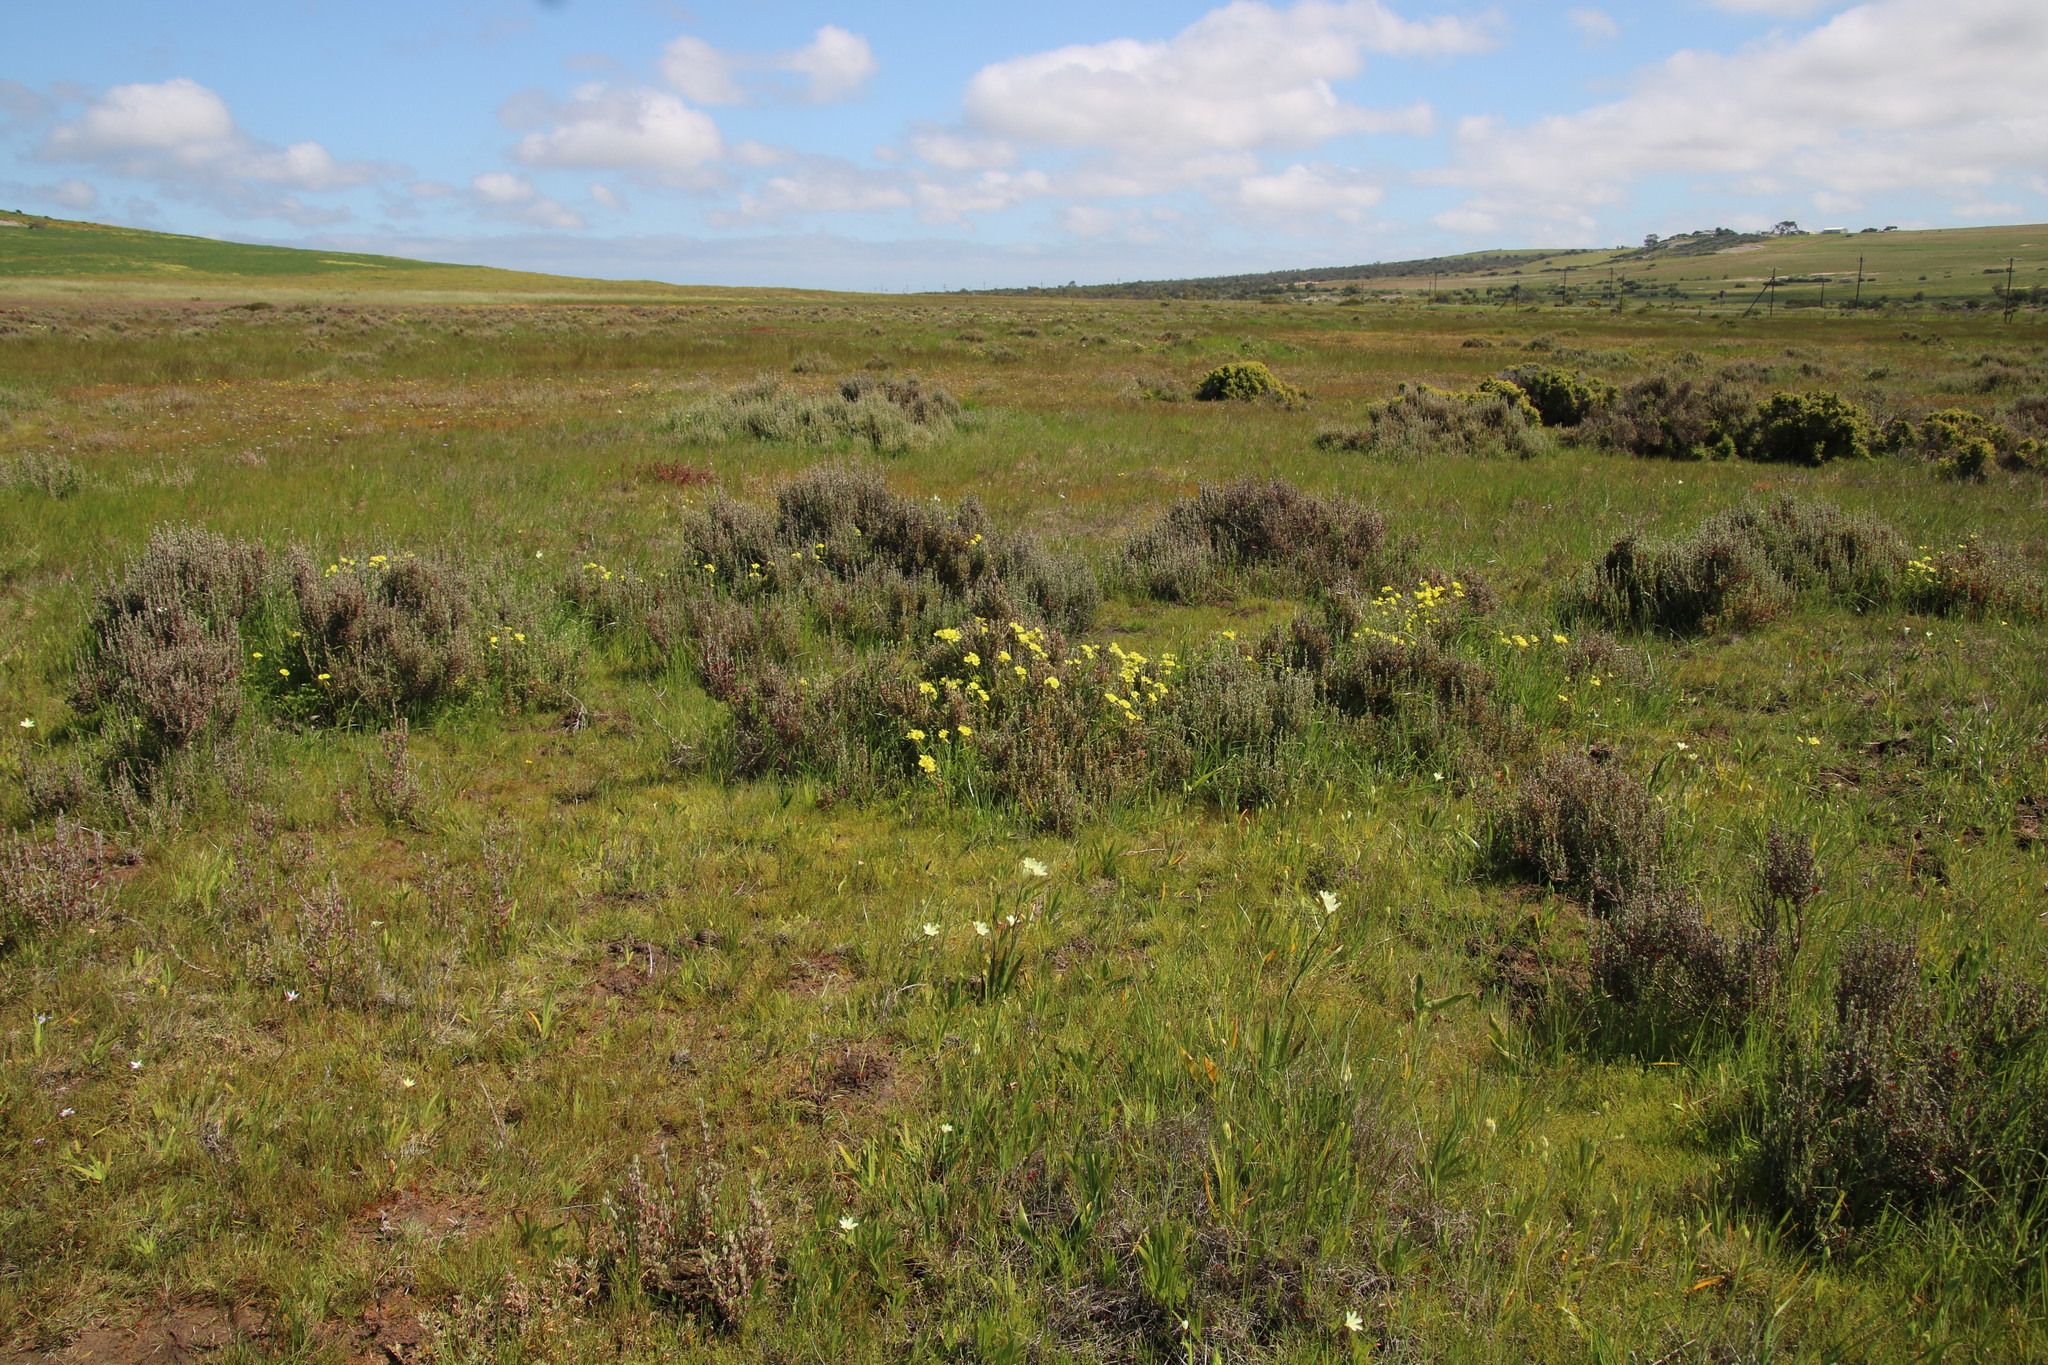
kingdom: Plantae
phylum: Tracheophyta
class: Magnoliopsida
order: Oxalidales
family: Oxalidaceae
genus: Oxalis
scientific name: Oxalis pes-caprae
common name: Bermuda-buttercup
